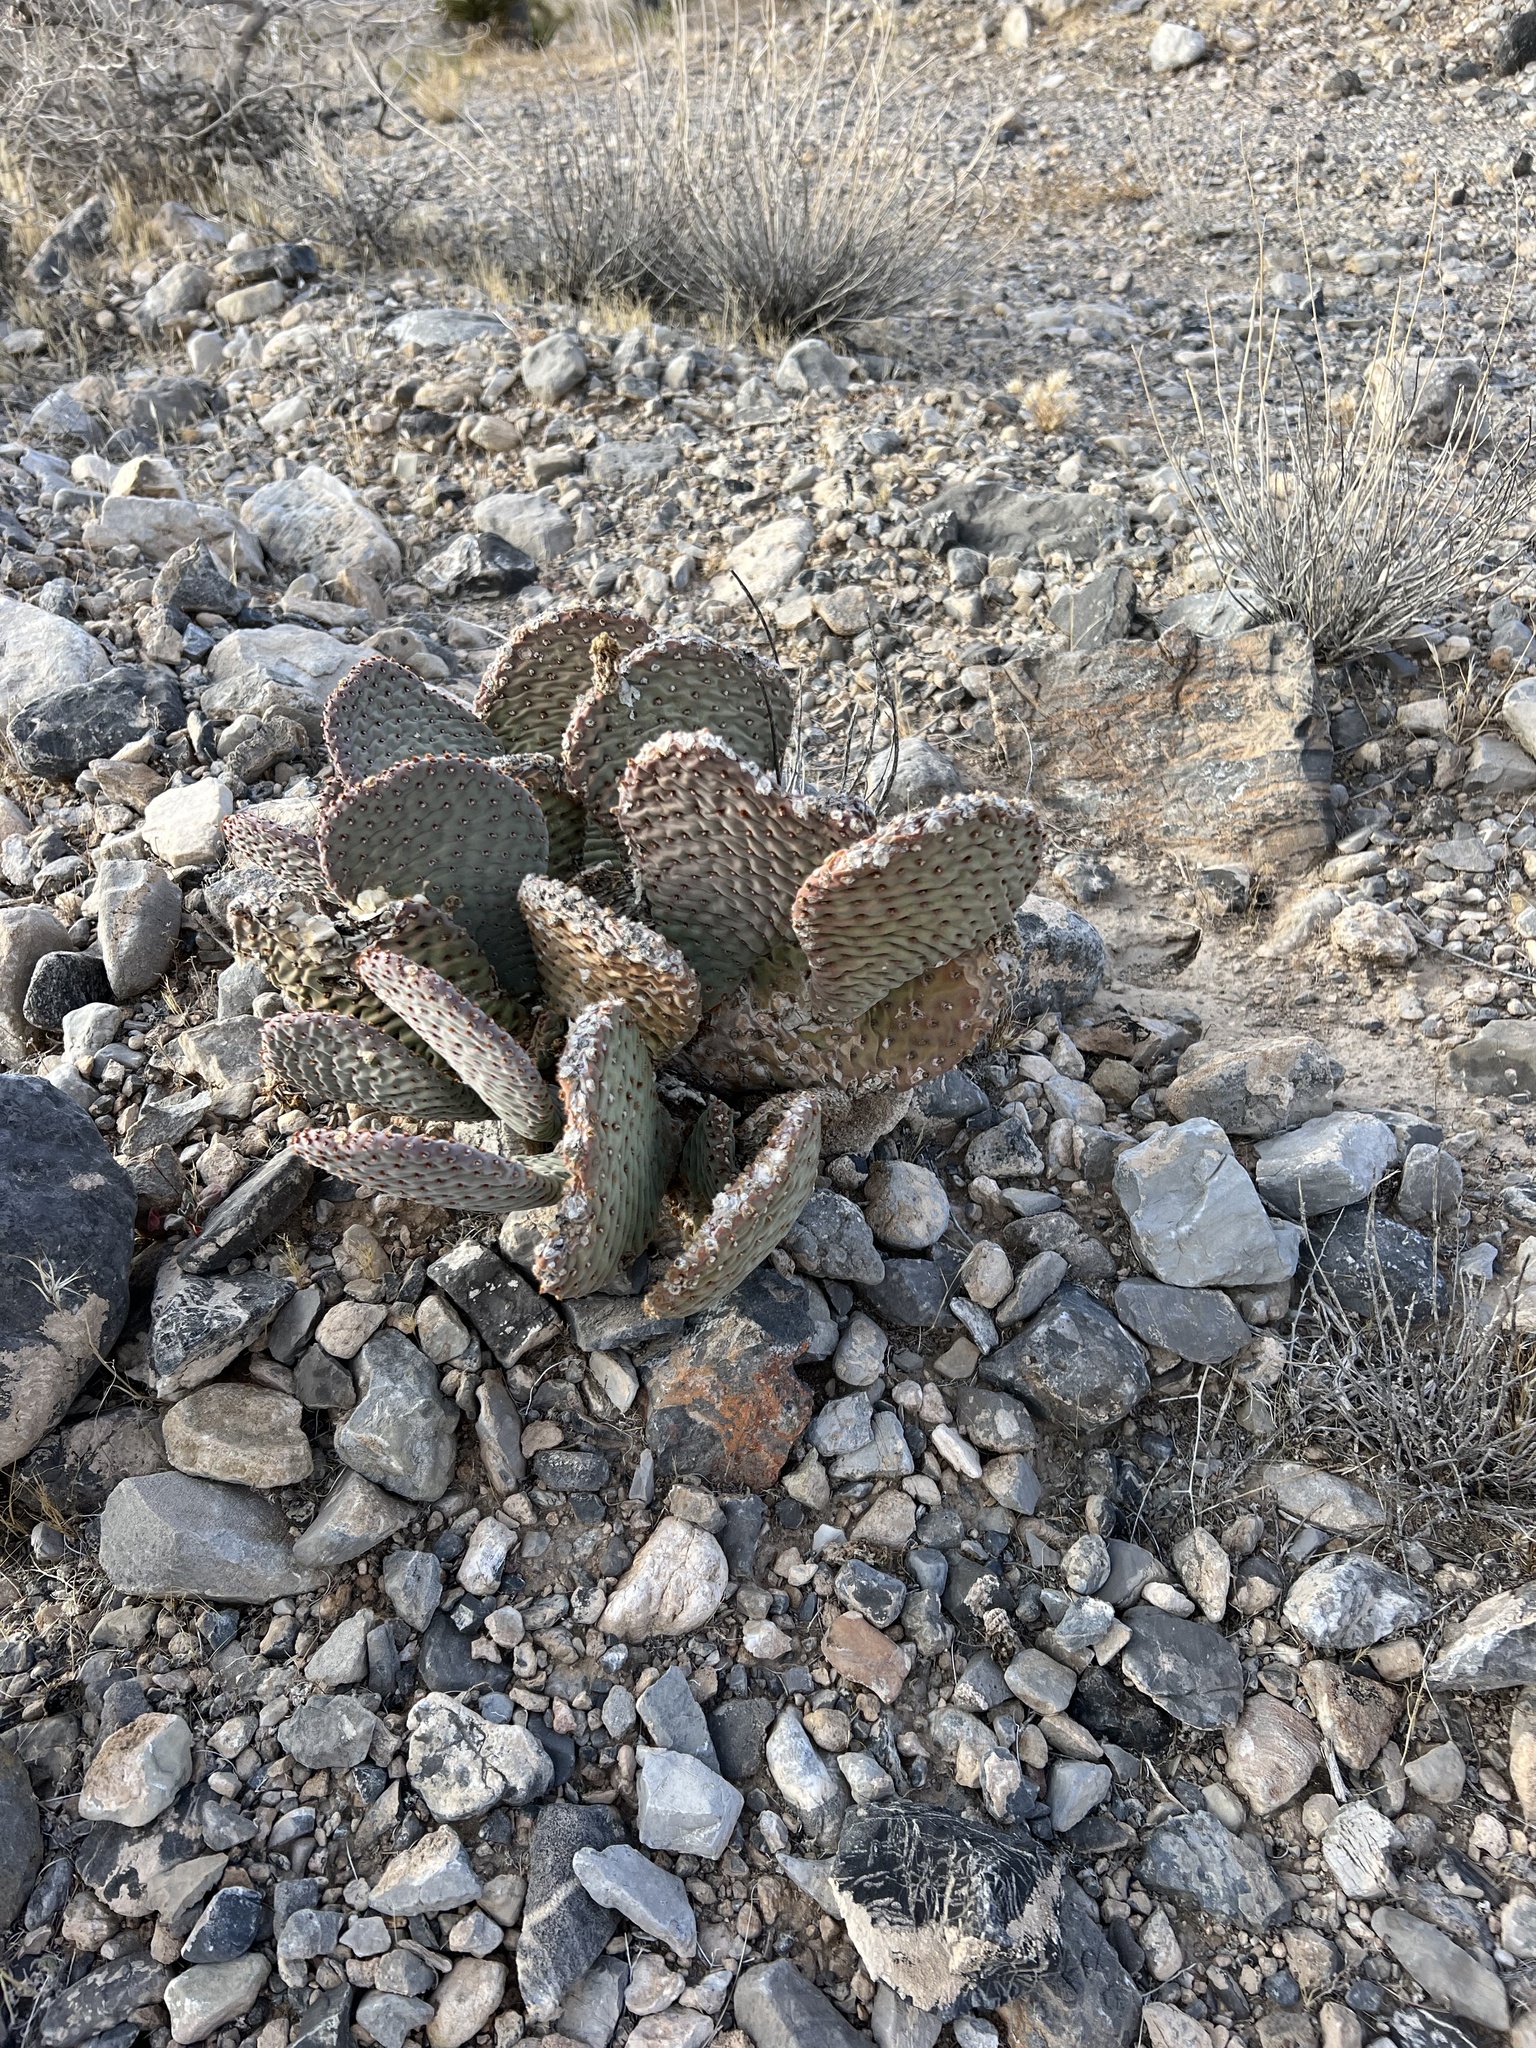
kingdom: Plantae
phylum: Tracheophyta
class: Magnoliopsida
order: Caryophyllales
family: Cactaceae
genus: Opuntia
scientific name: Opuntia basilaris
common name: Beavertail prickly-pear
